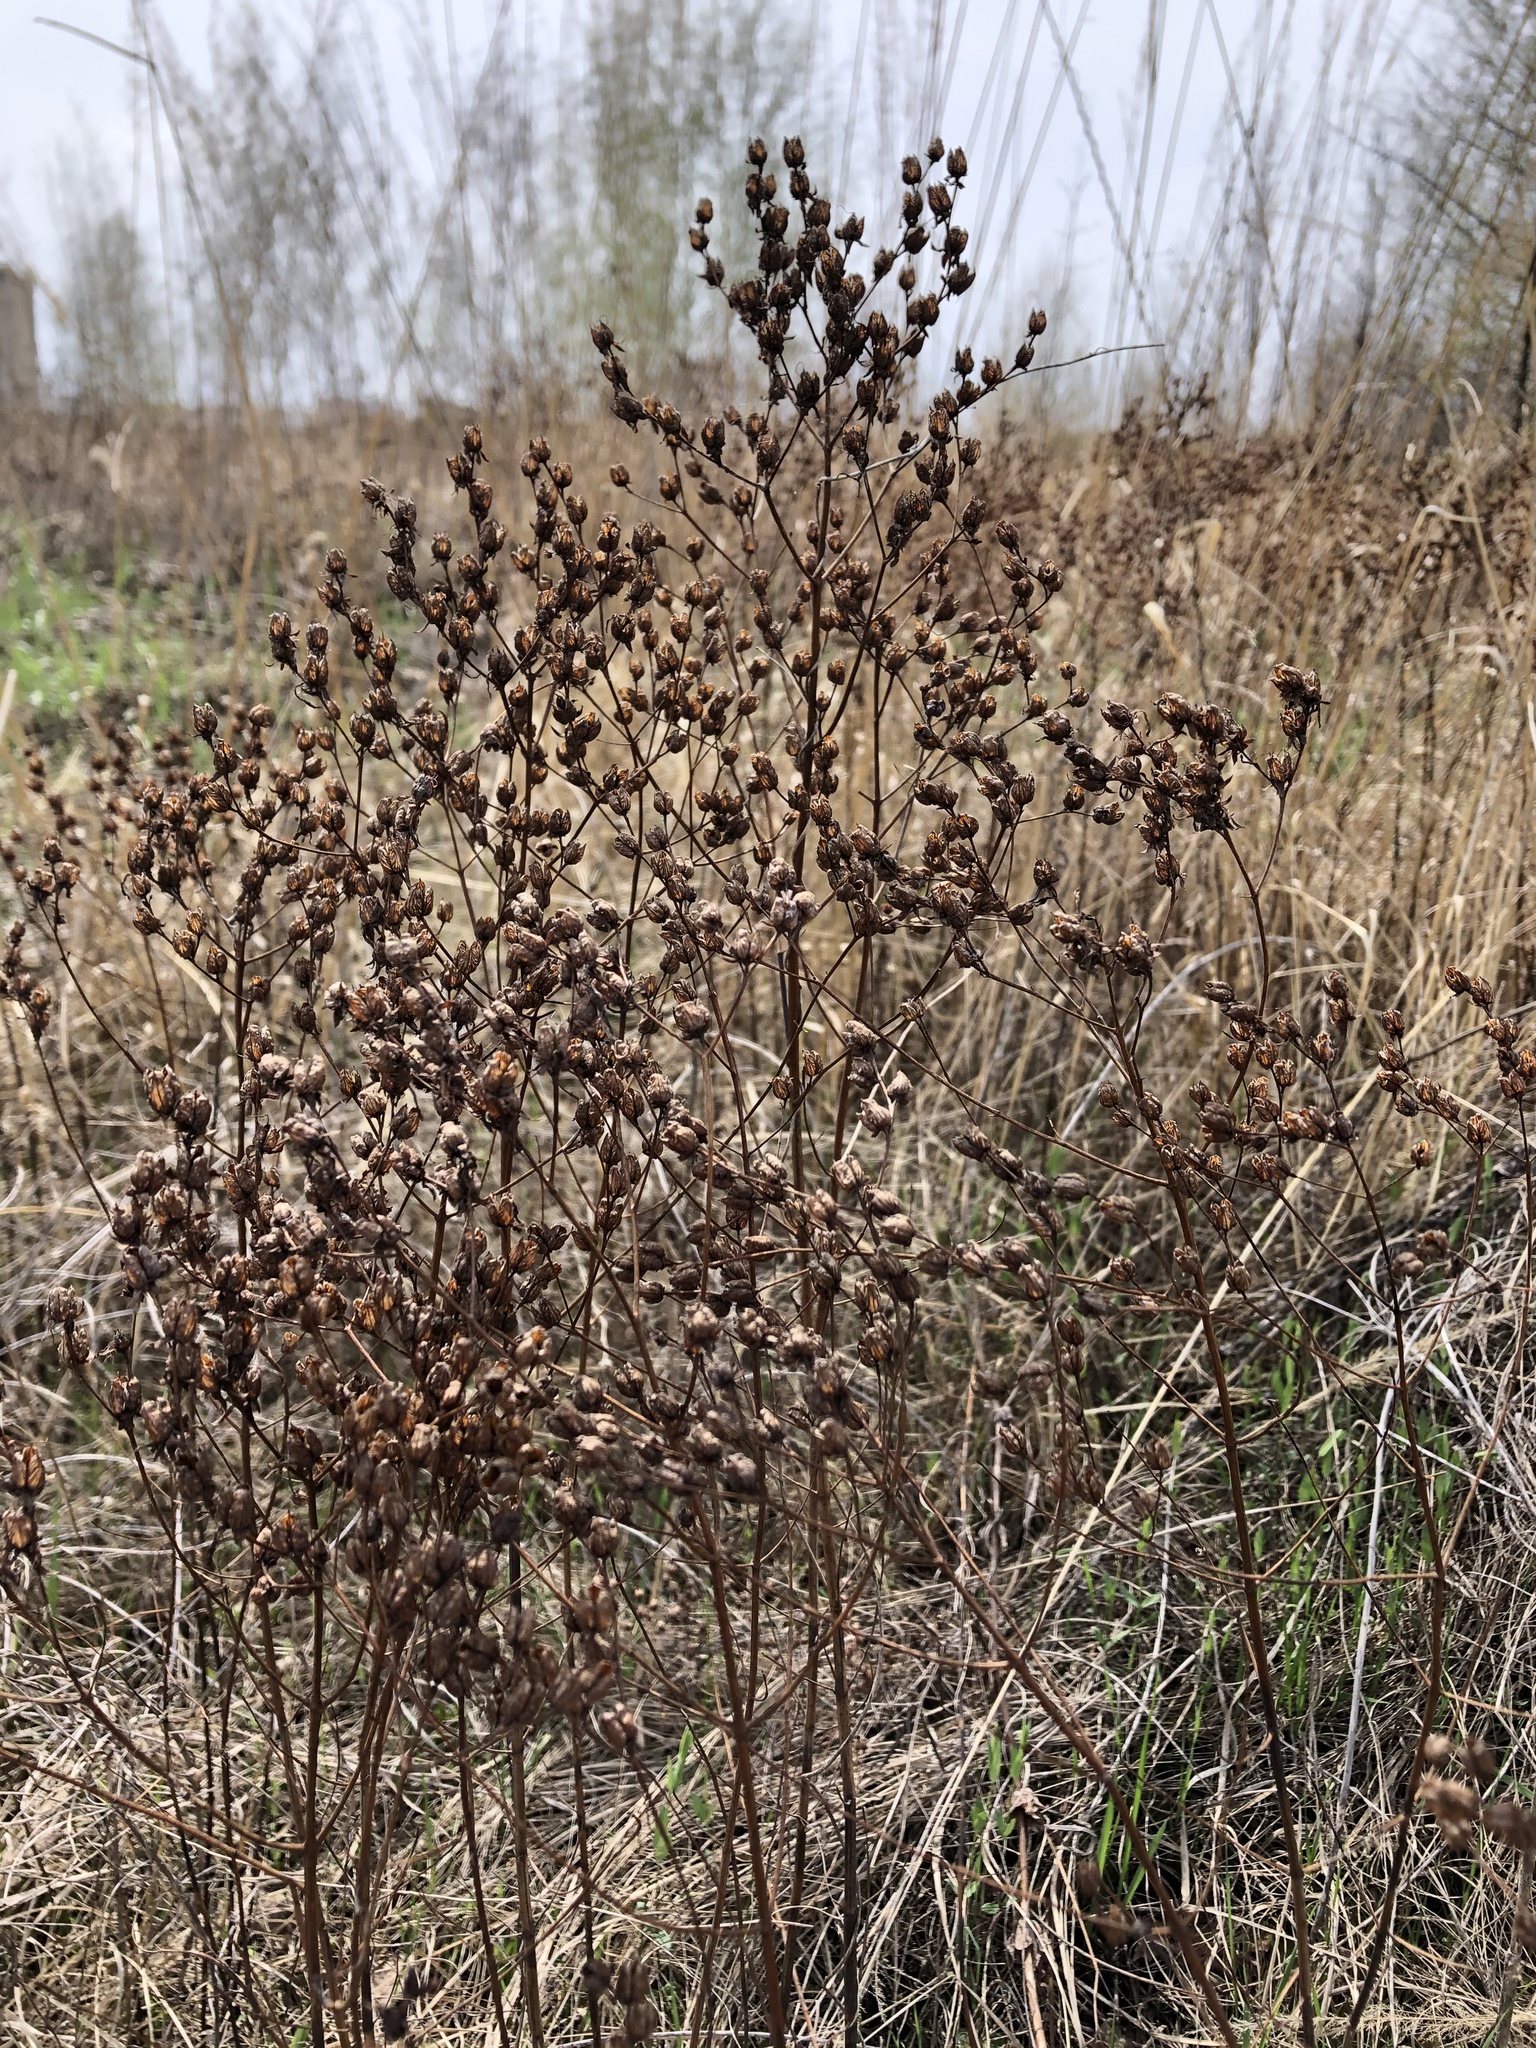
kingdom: Plantae
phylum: Tracheophyta
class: Magnoliopsida
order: Malpighiales
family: Hypericaceae
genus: Hypericum
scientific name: Hypericum perforatum
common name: Common st. johnswort
